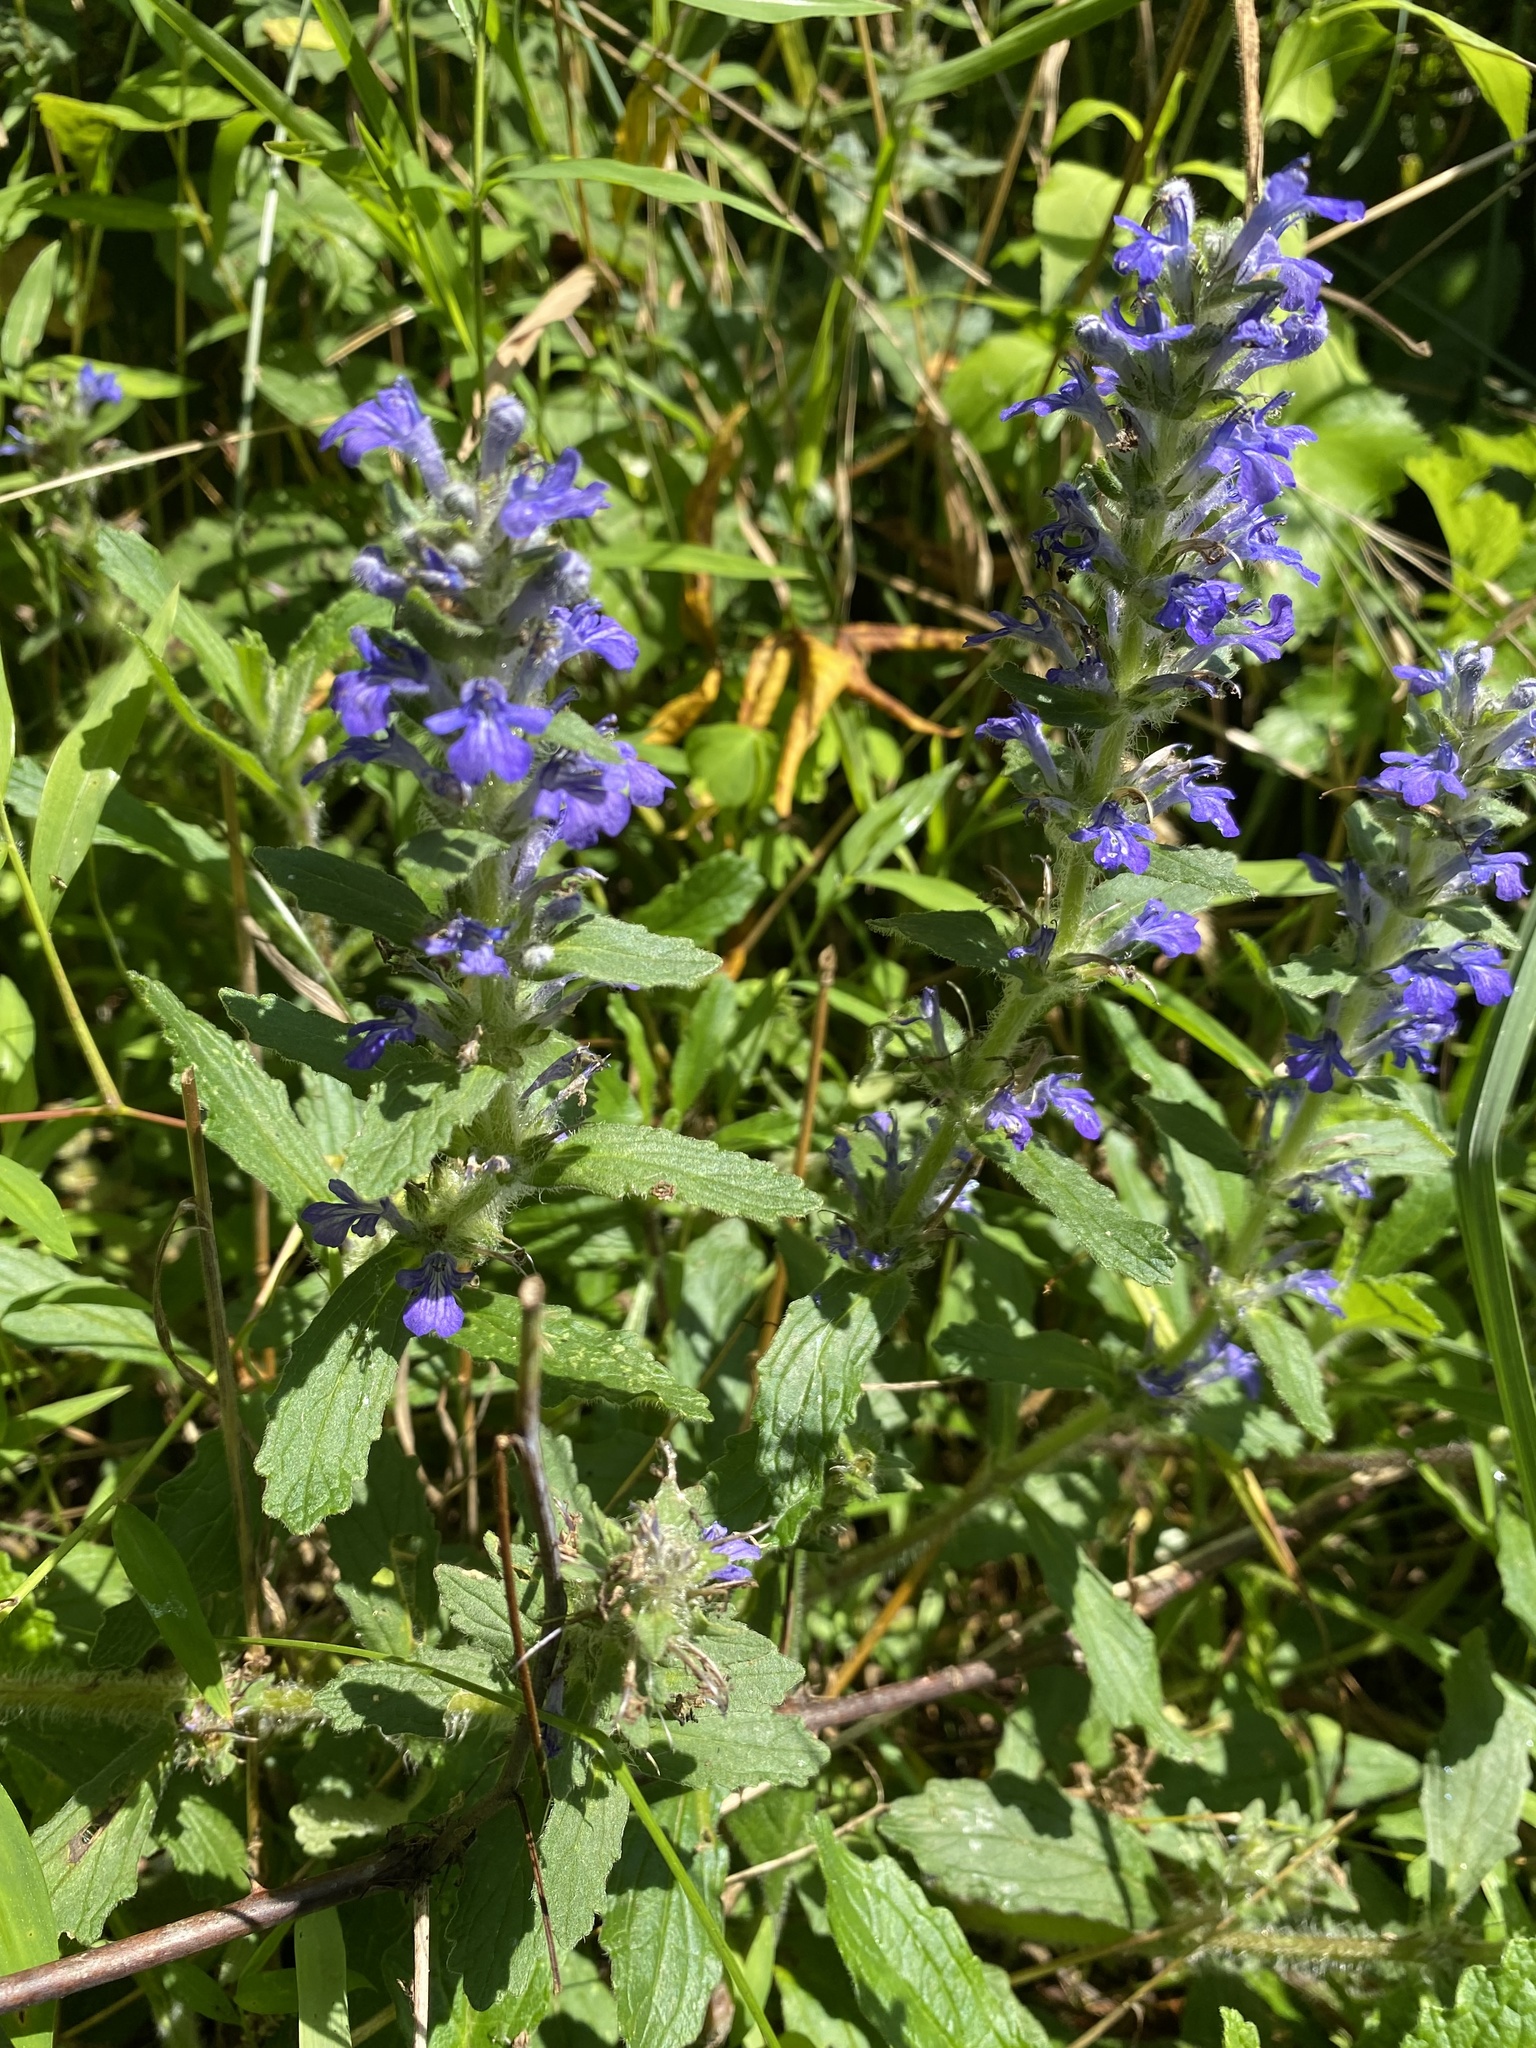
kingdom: Plantae
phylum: Tracheophyta
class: Magnoliopsida
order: Lamiales
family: Lamiaceae
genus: Ajuga
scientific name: Ajuga genevensis
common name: Blue bugle
